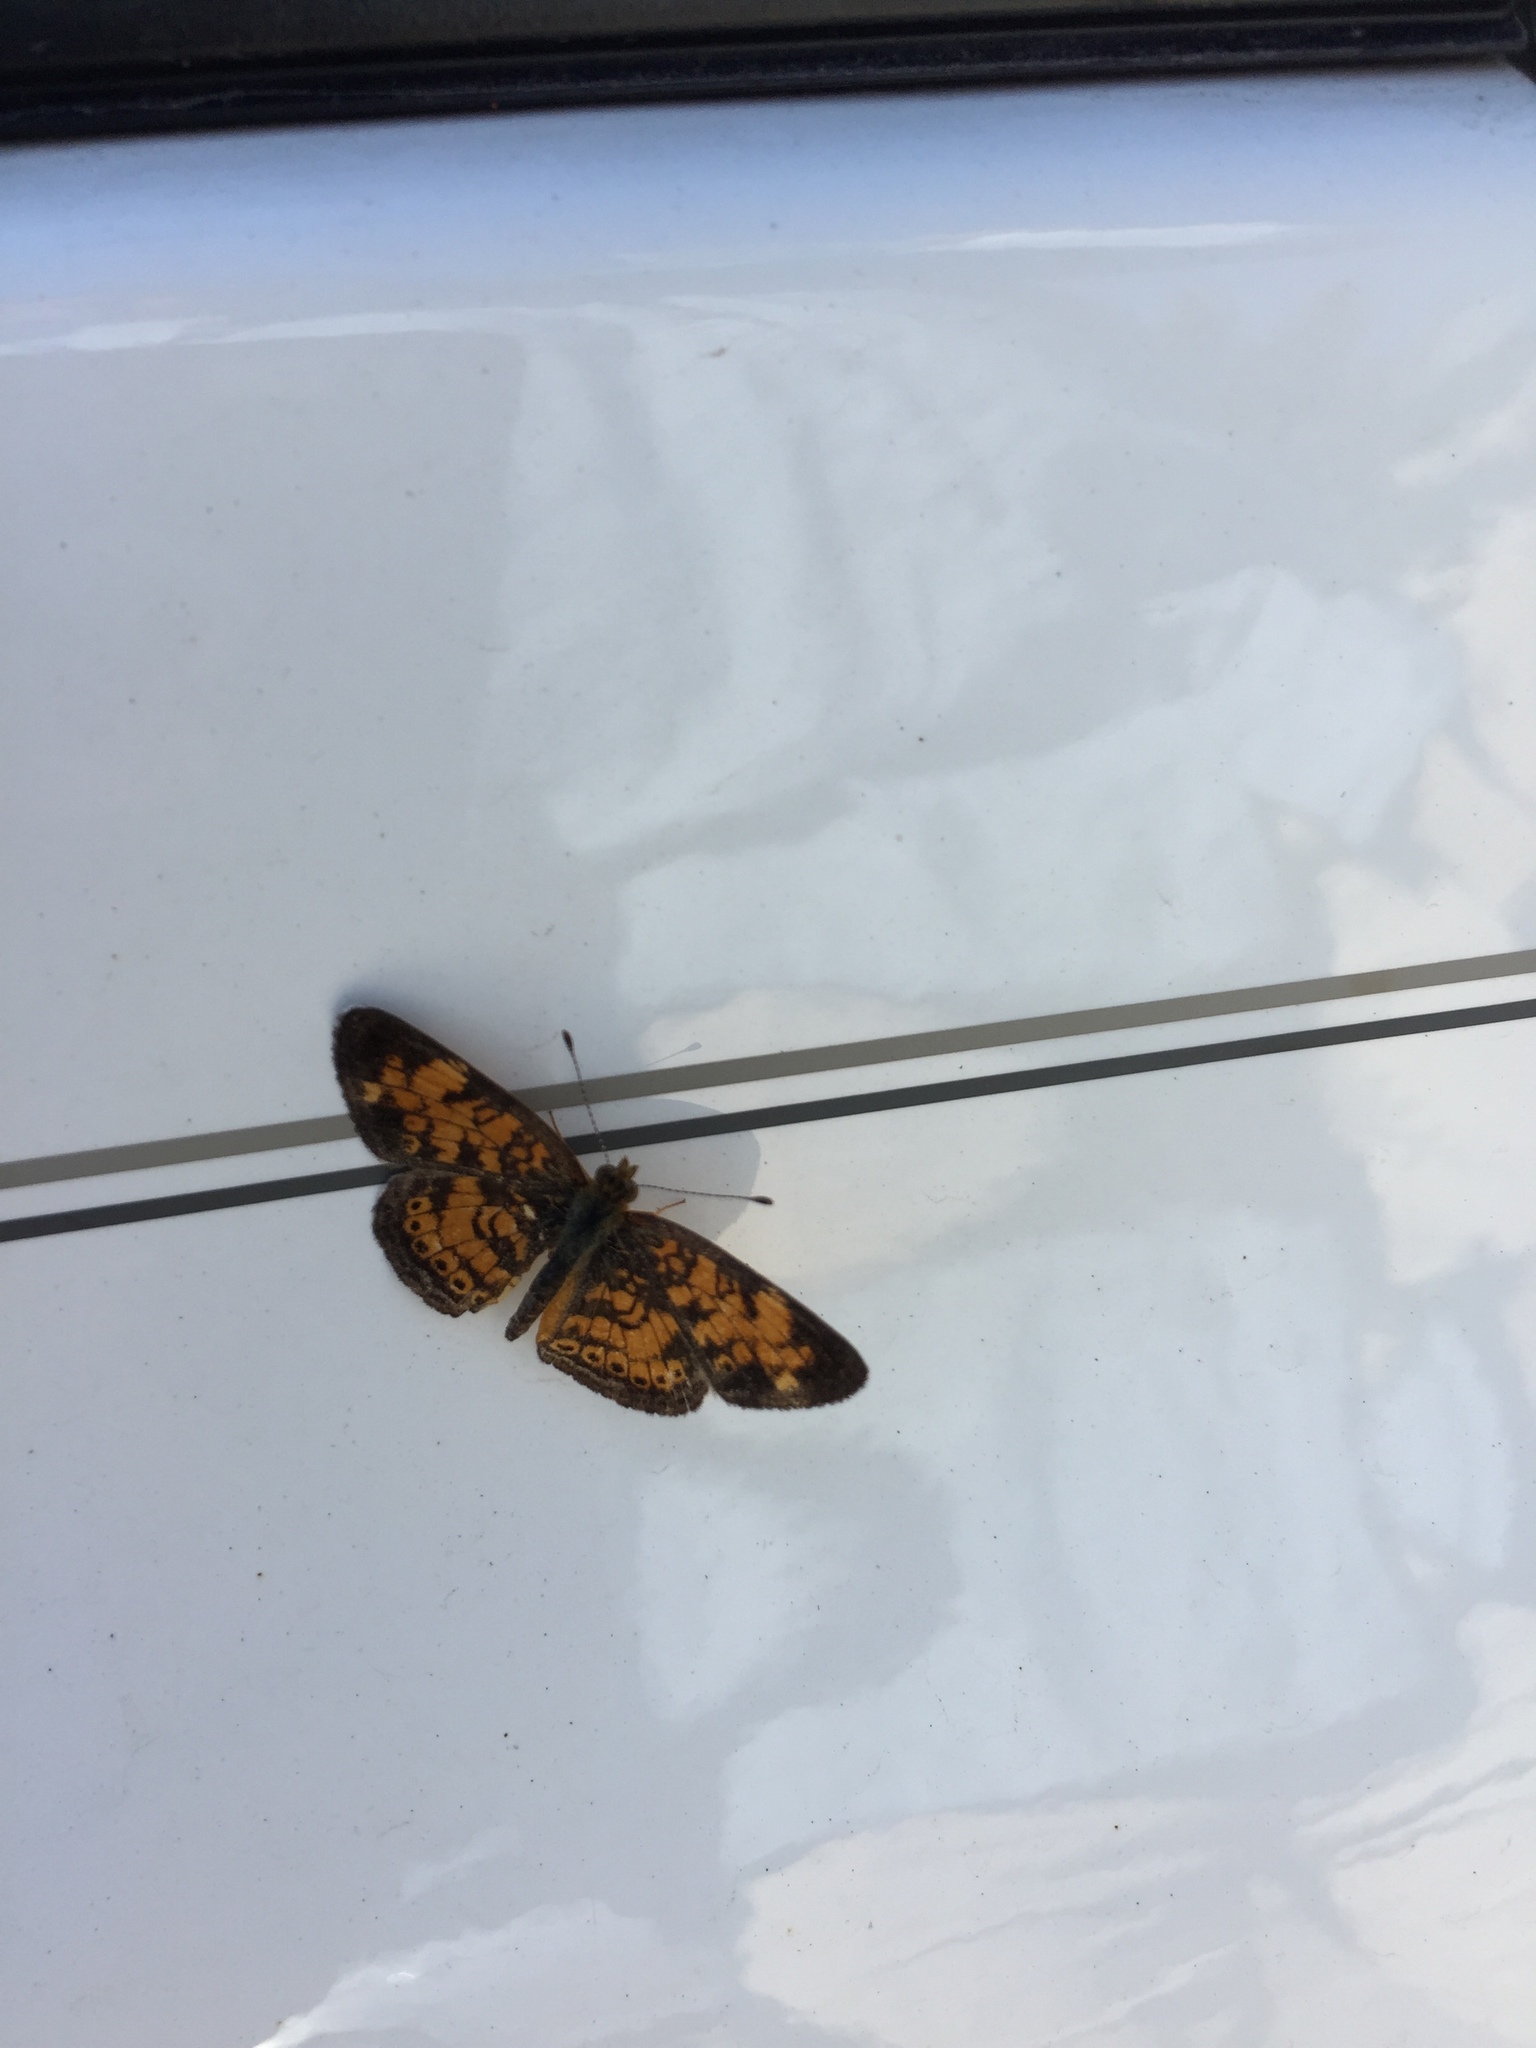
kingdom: Animalia
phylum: Arthropoda
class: Insecta
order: Lepidoptera
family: Nymphalidae
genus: Phyciodes
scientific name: Phyciodes tharos
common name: Pearl crescent
